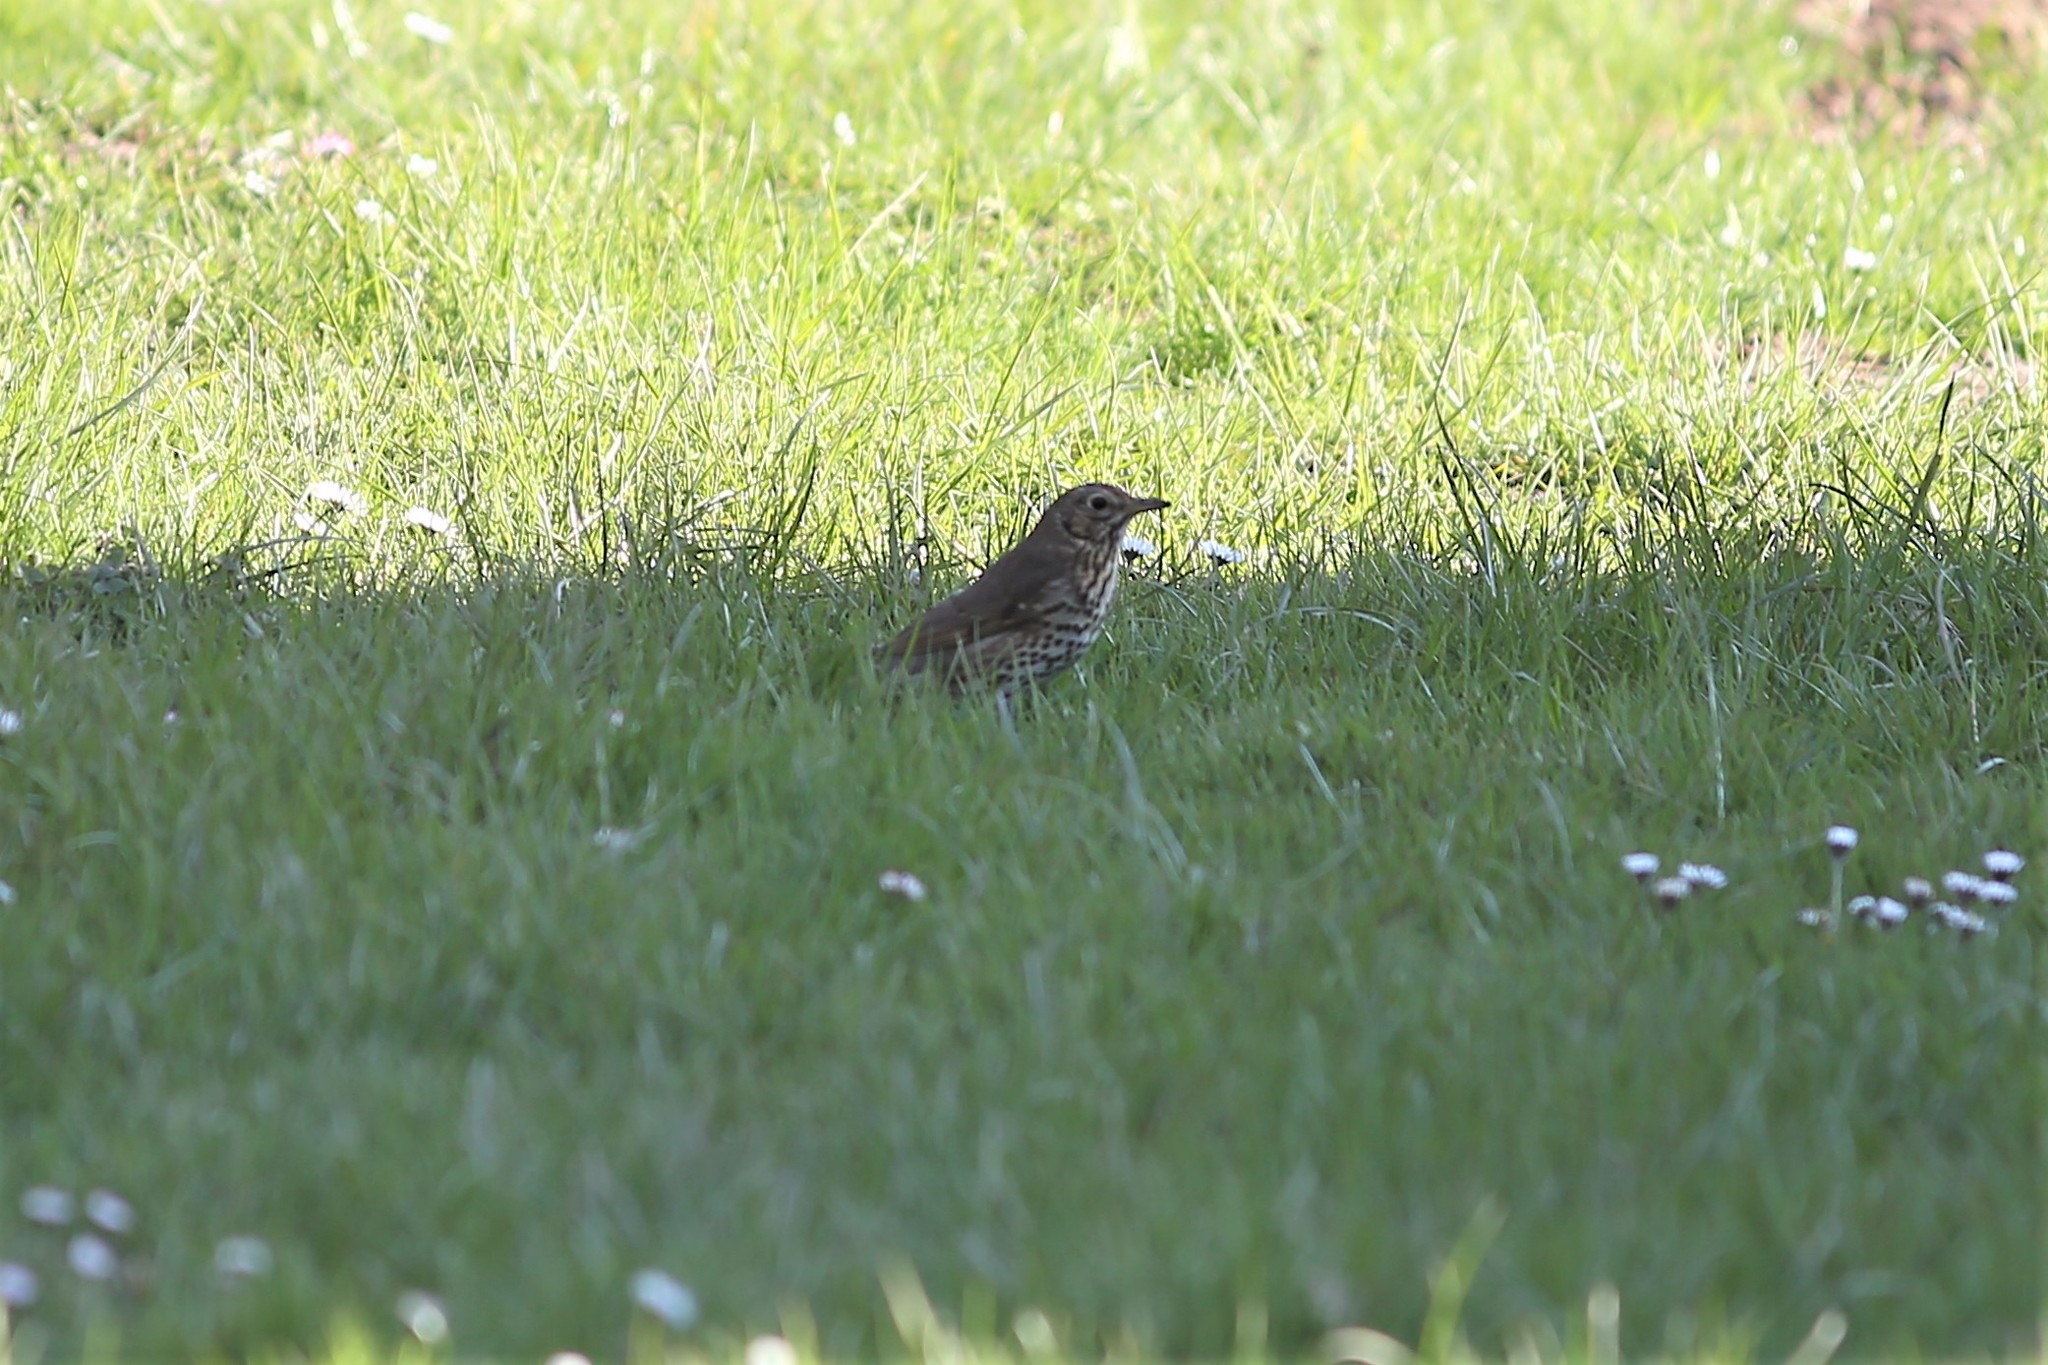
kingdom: Animalia
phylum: Chordata
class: Aves
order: Passeriformes
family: Turdidae
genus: Turdus
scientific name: Turdus philomelos
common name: Song thrush
